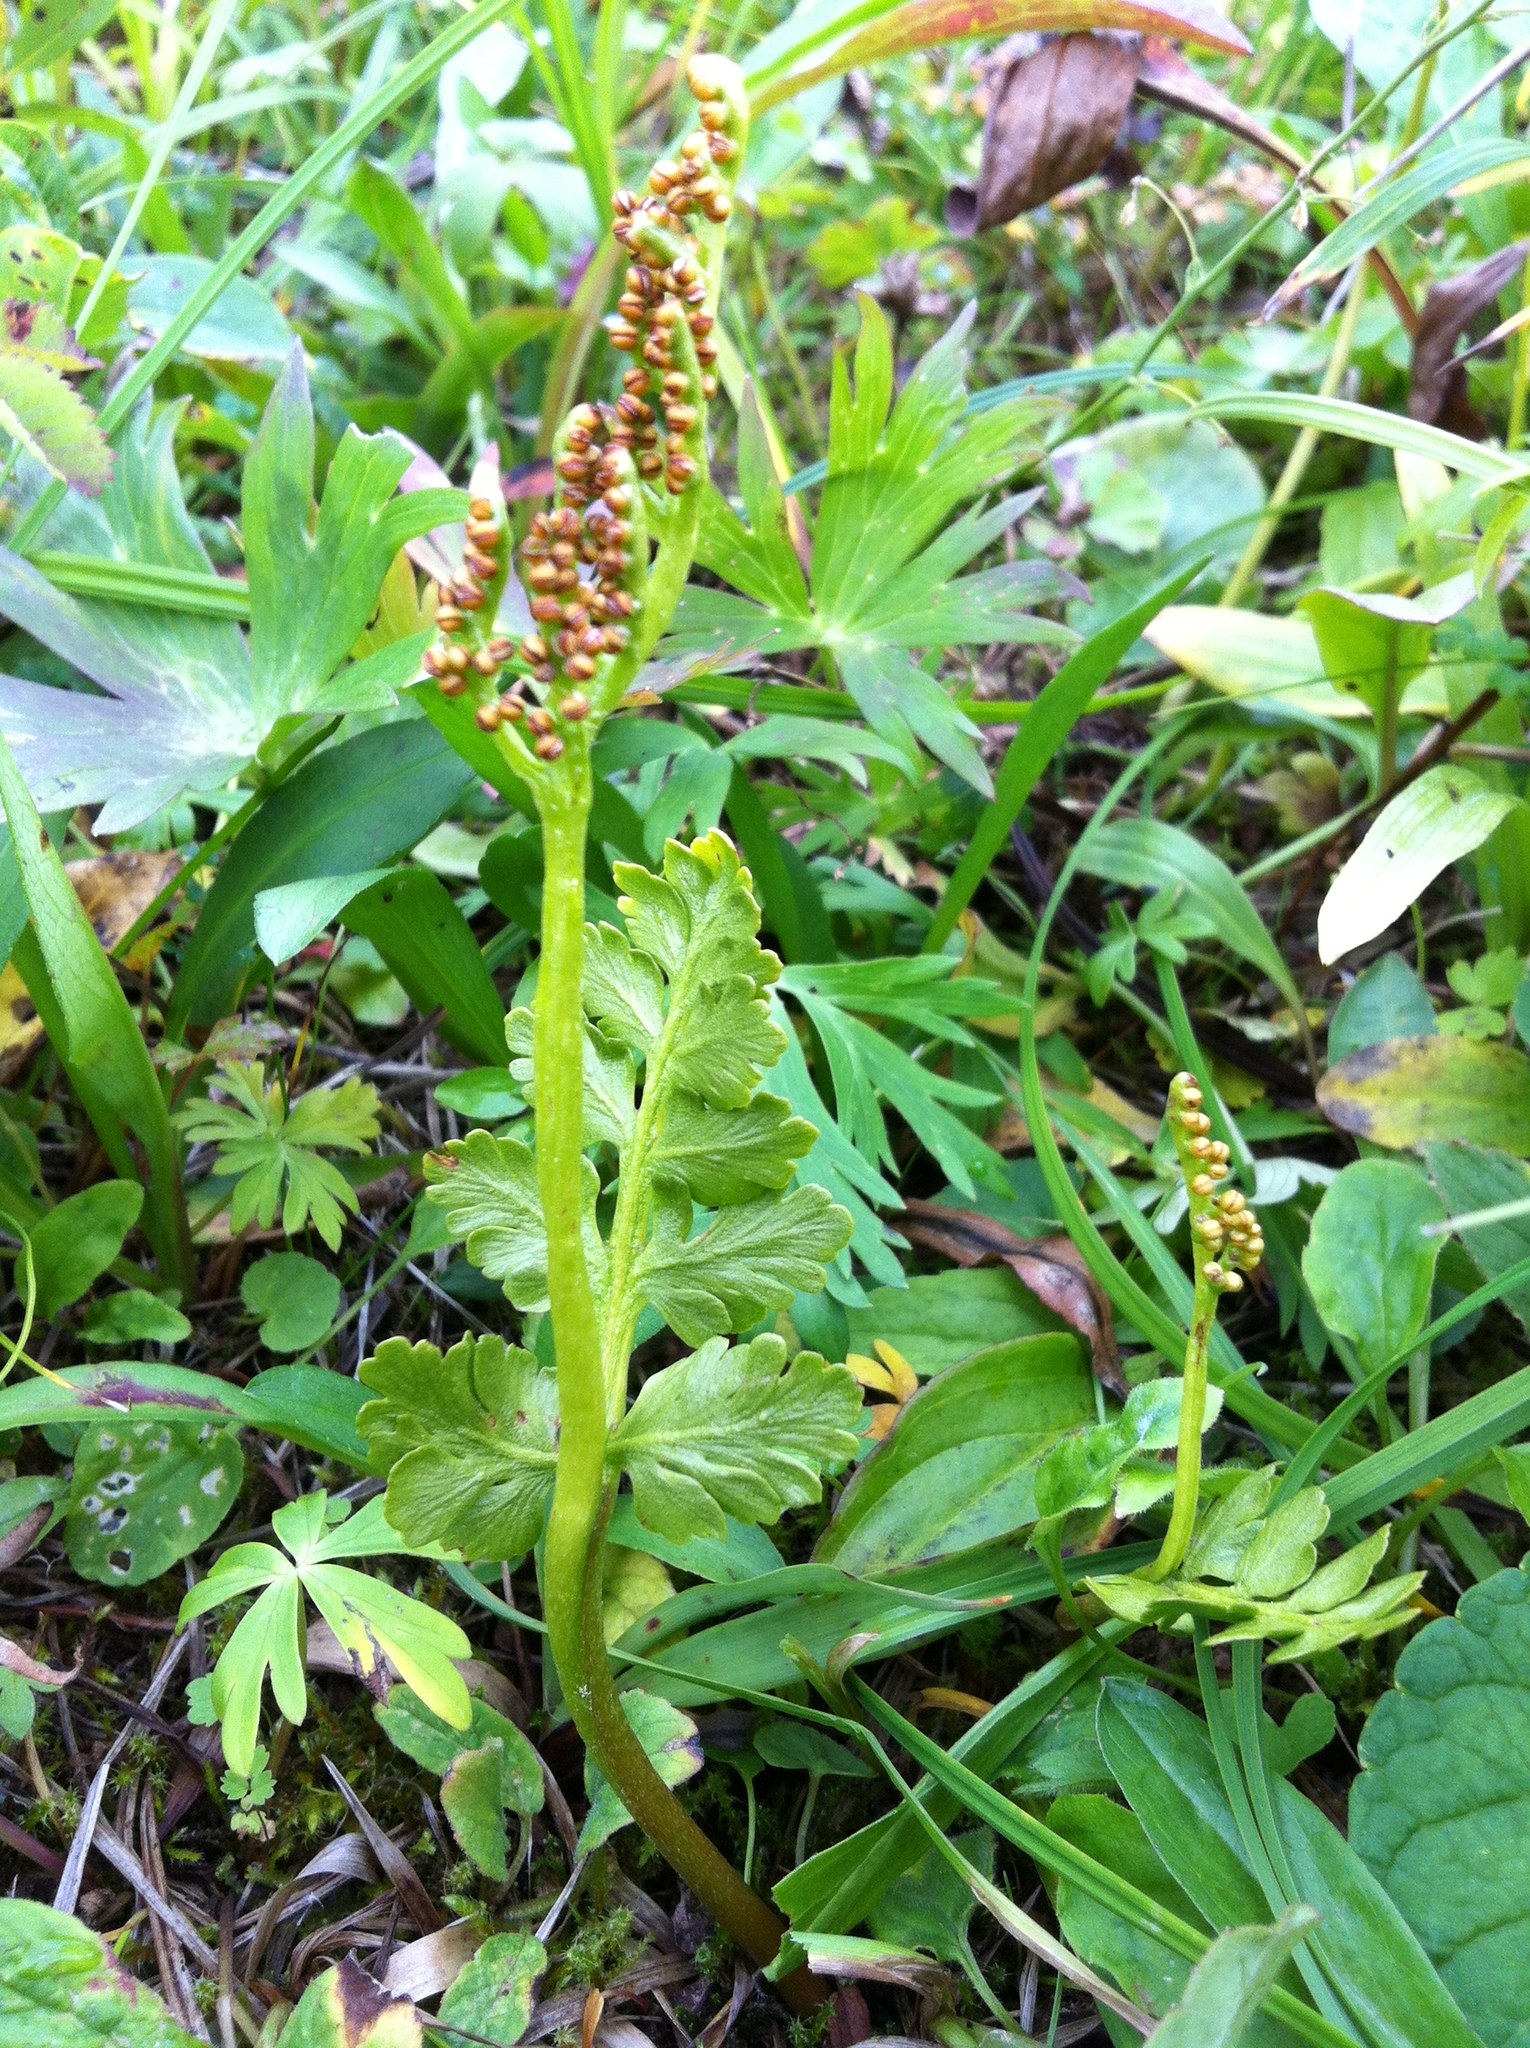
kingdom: Plantae
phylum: Tracheophyta
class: Polypodiopsida
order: Ophioglossales
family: Ophioglossaceae
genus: Botrychium
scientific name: Botrychium pinnatum
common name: Northwestern moonwort
